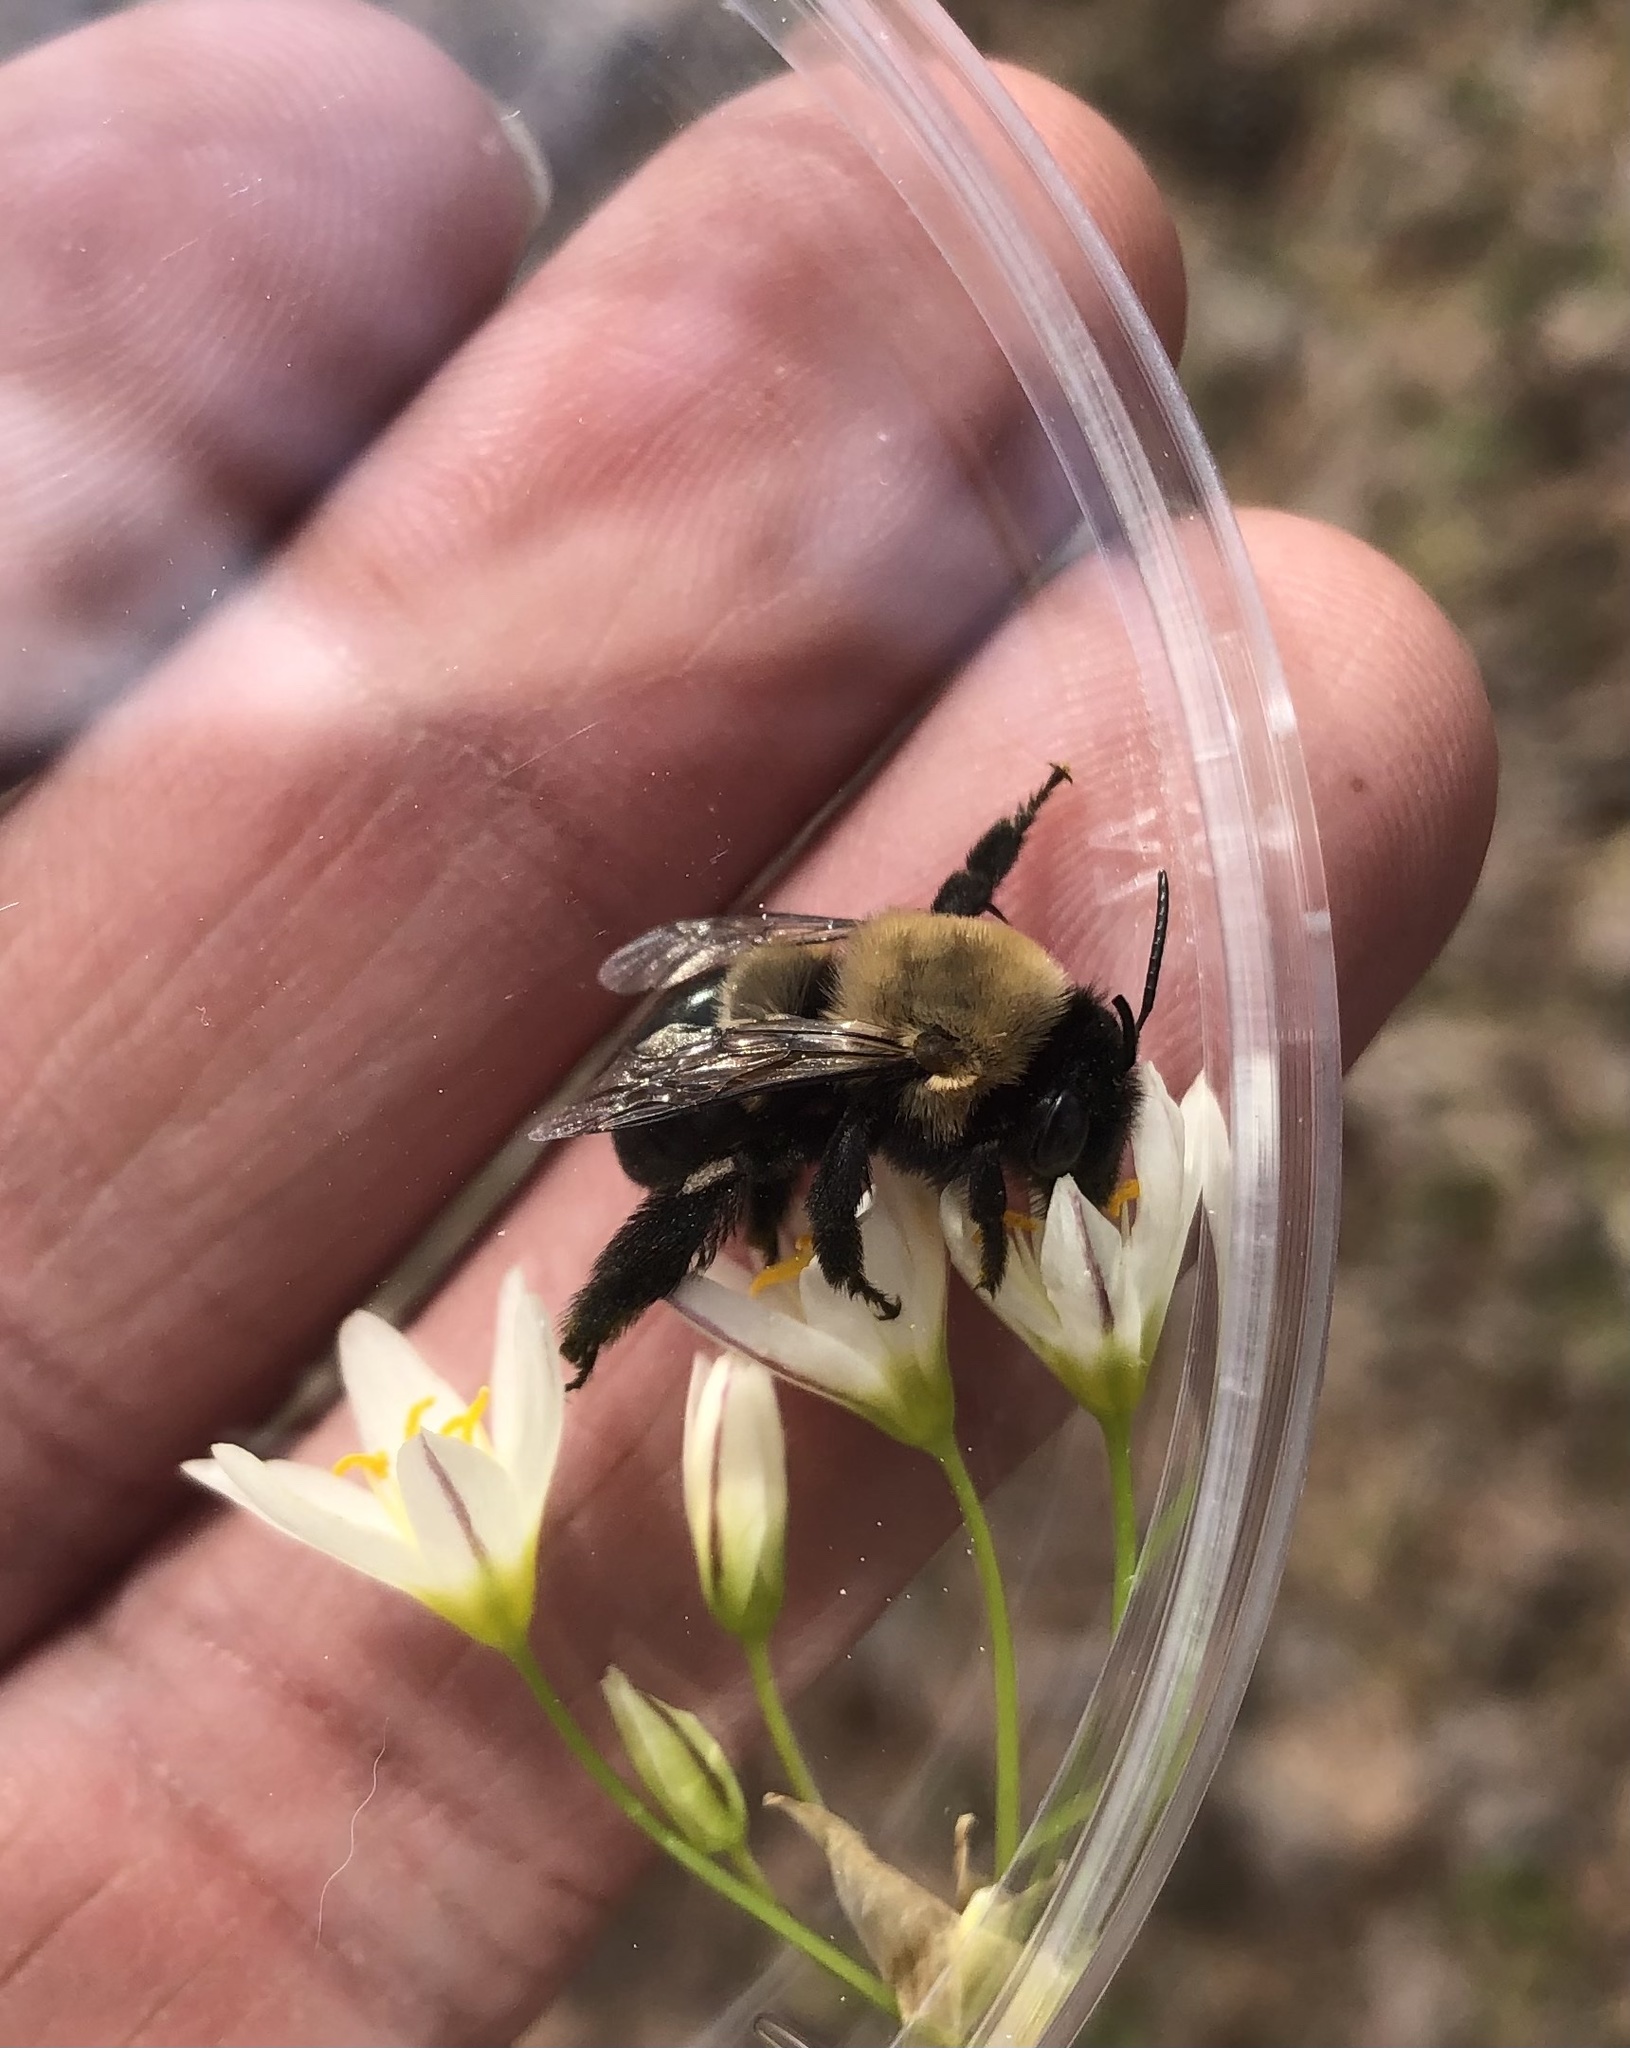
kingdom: Animalia
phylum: Arthropoda
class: Insecta
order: Hymenoptera
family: Apidae
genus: Habropoda
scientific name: Habropoda laboriosa
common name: Southeastern blueberry bee
